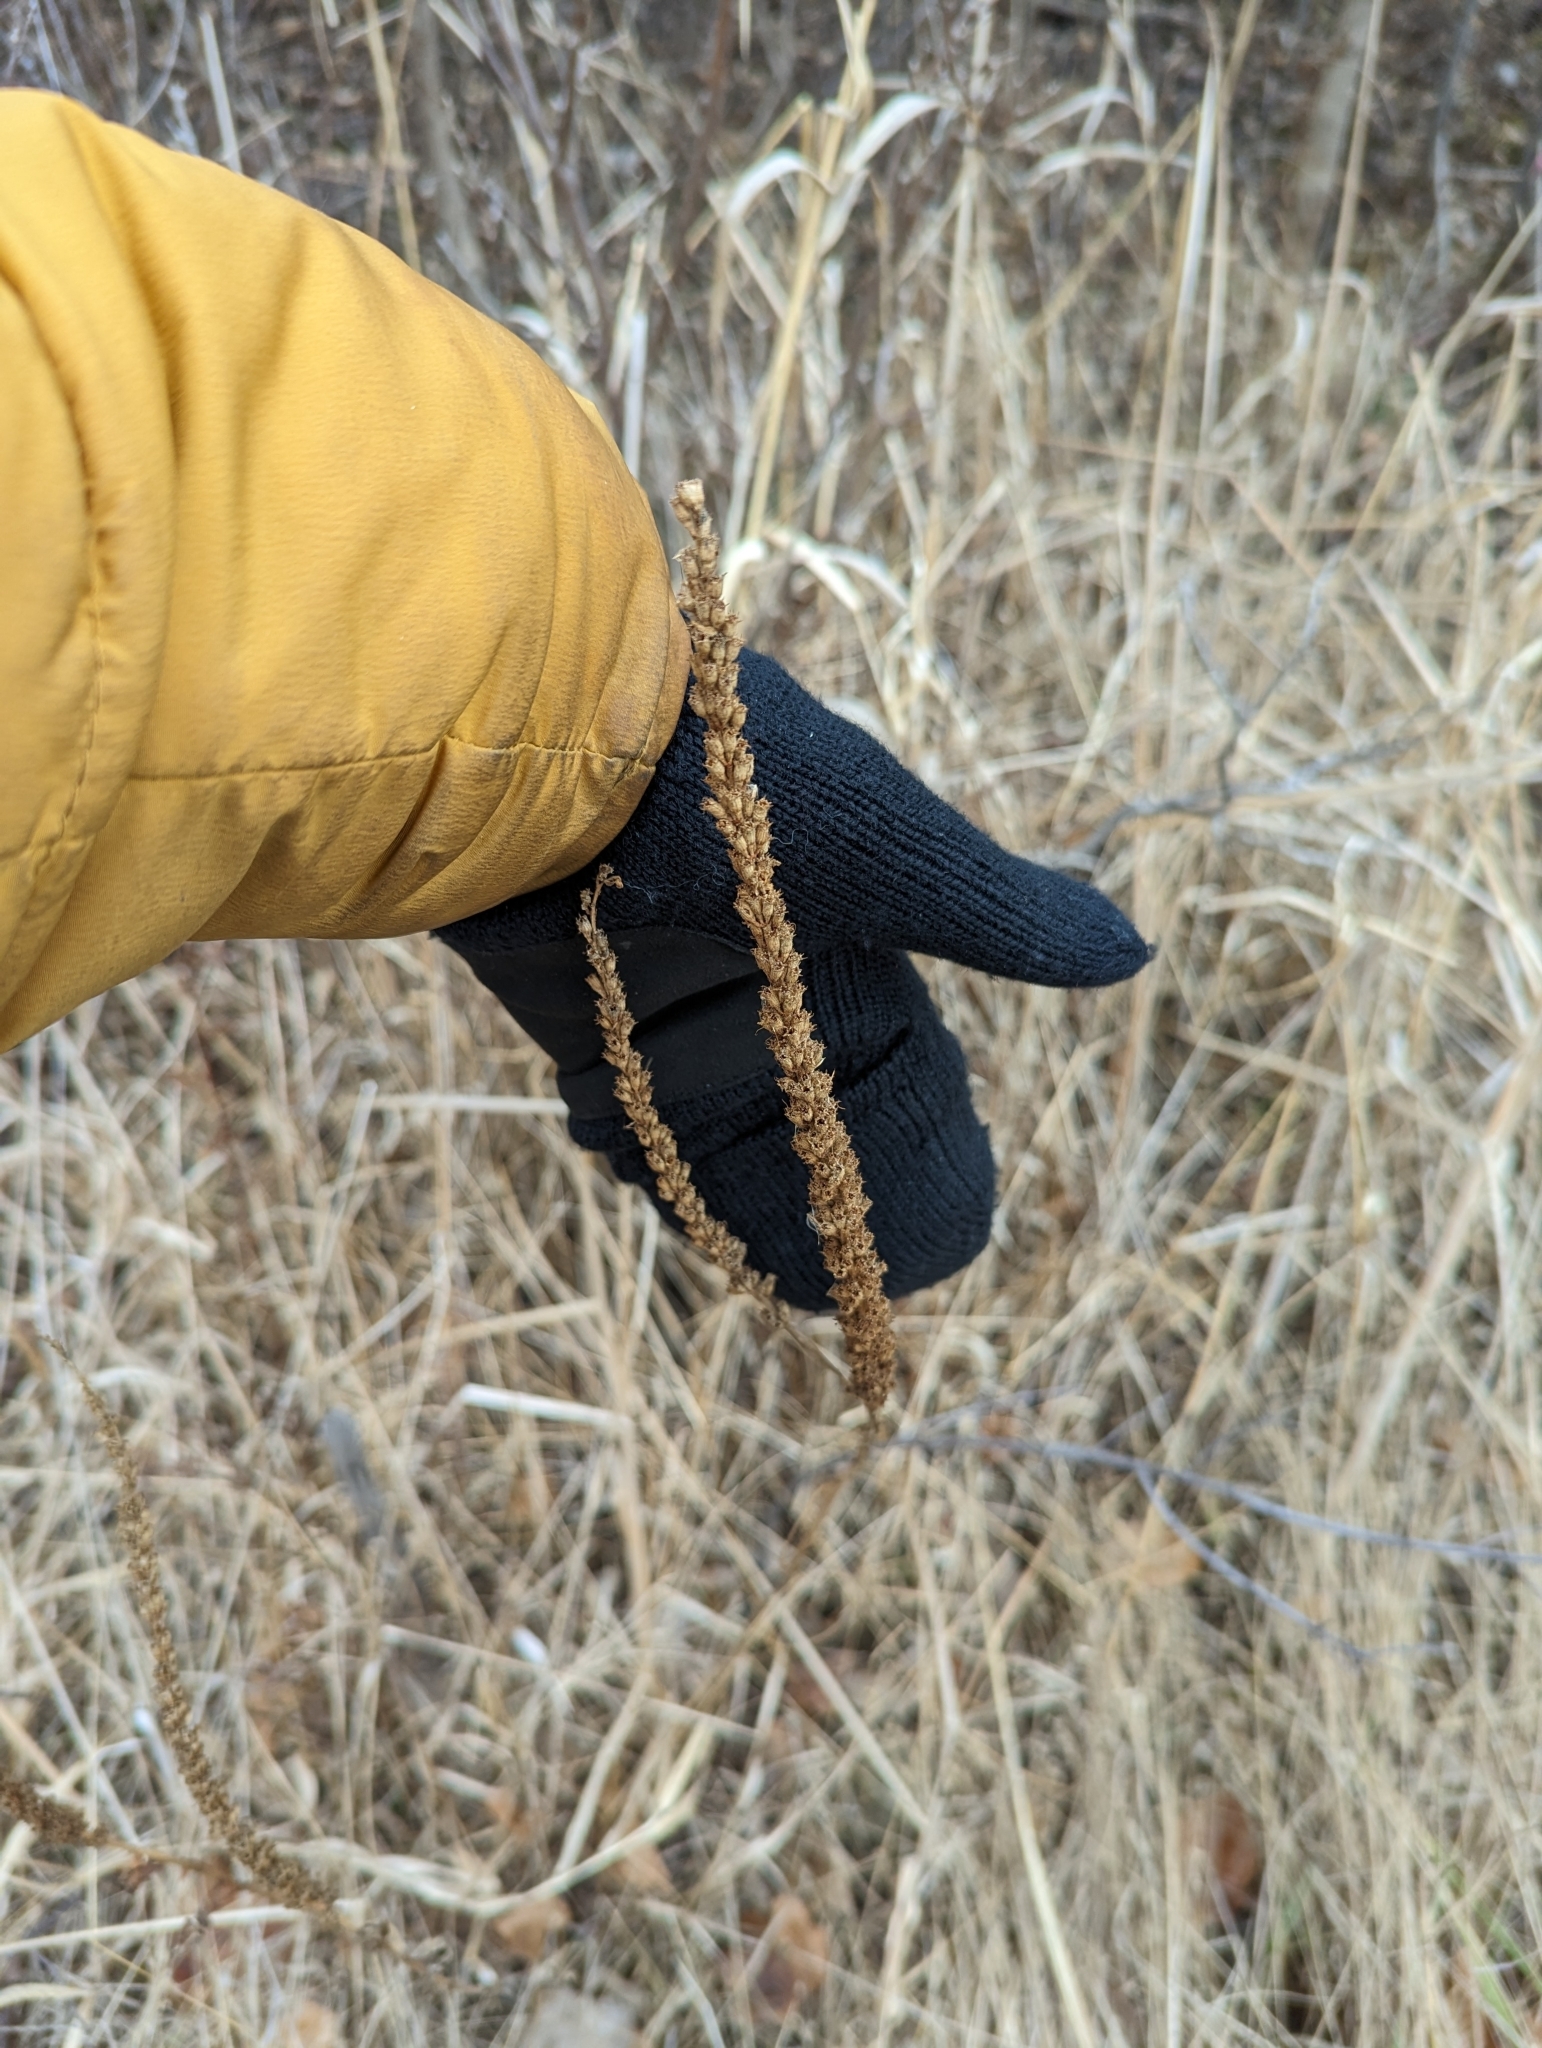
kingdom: Plantae
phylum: Tracheophyta
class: Magnoliopsida
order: Myrtales
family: Lythraceae
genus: Lythrum
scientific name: Lythrum salicaria
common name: Purple loosestrife
